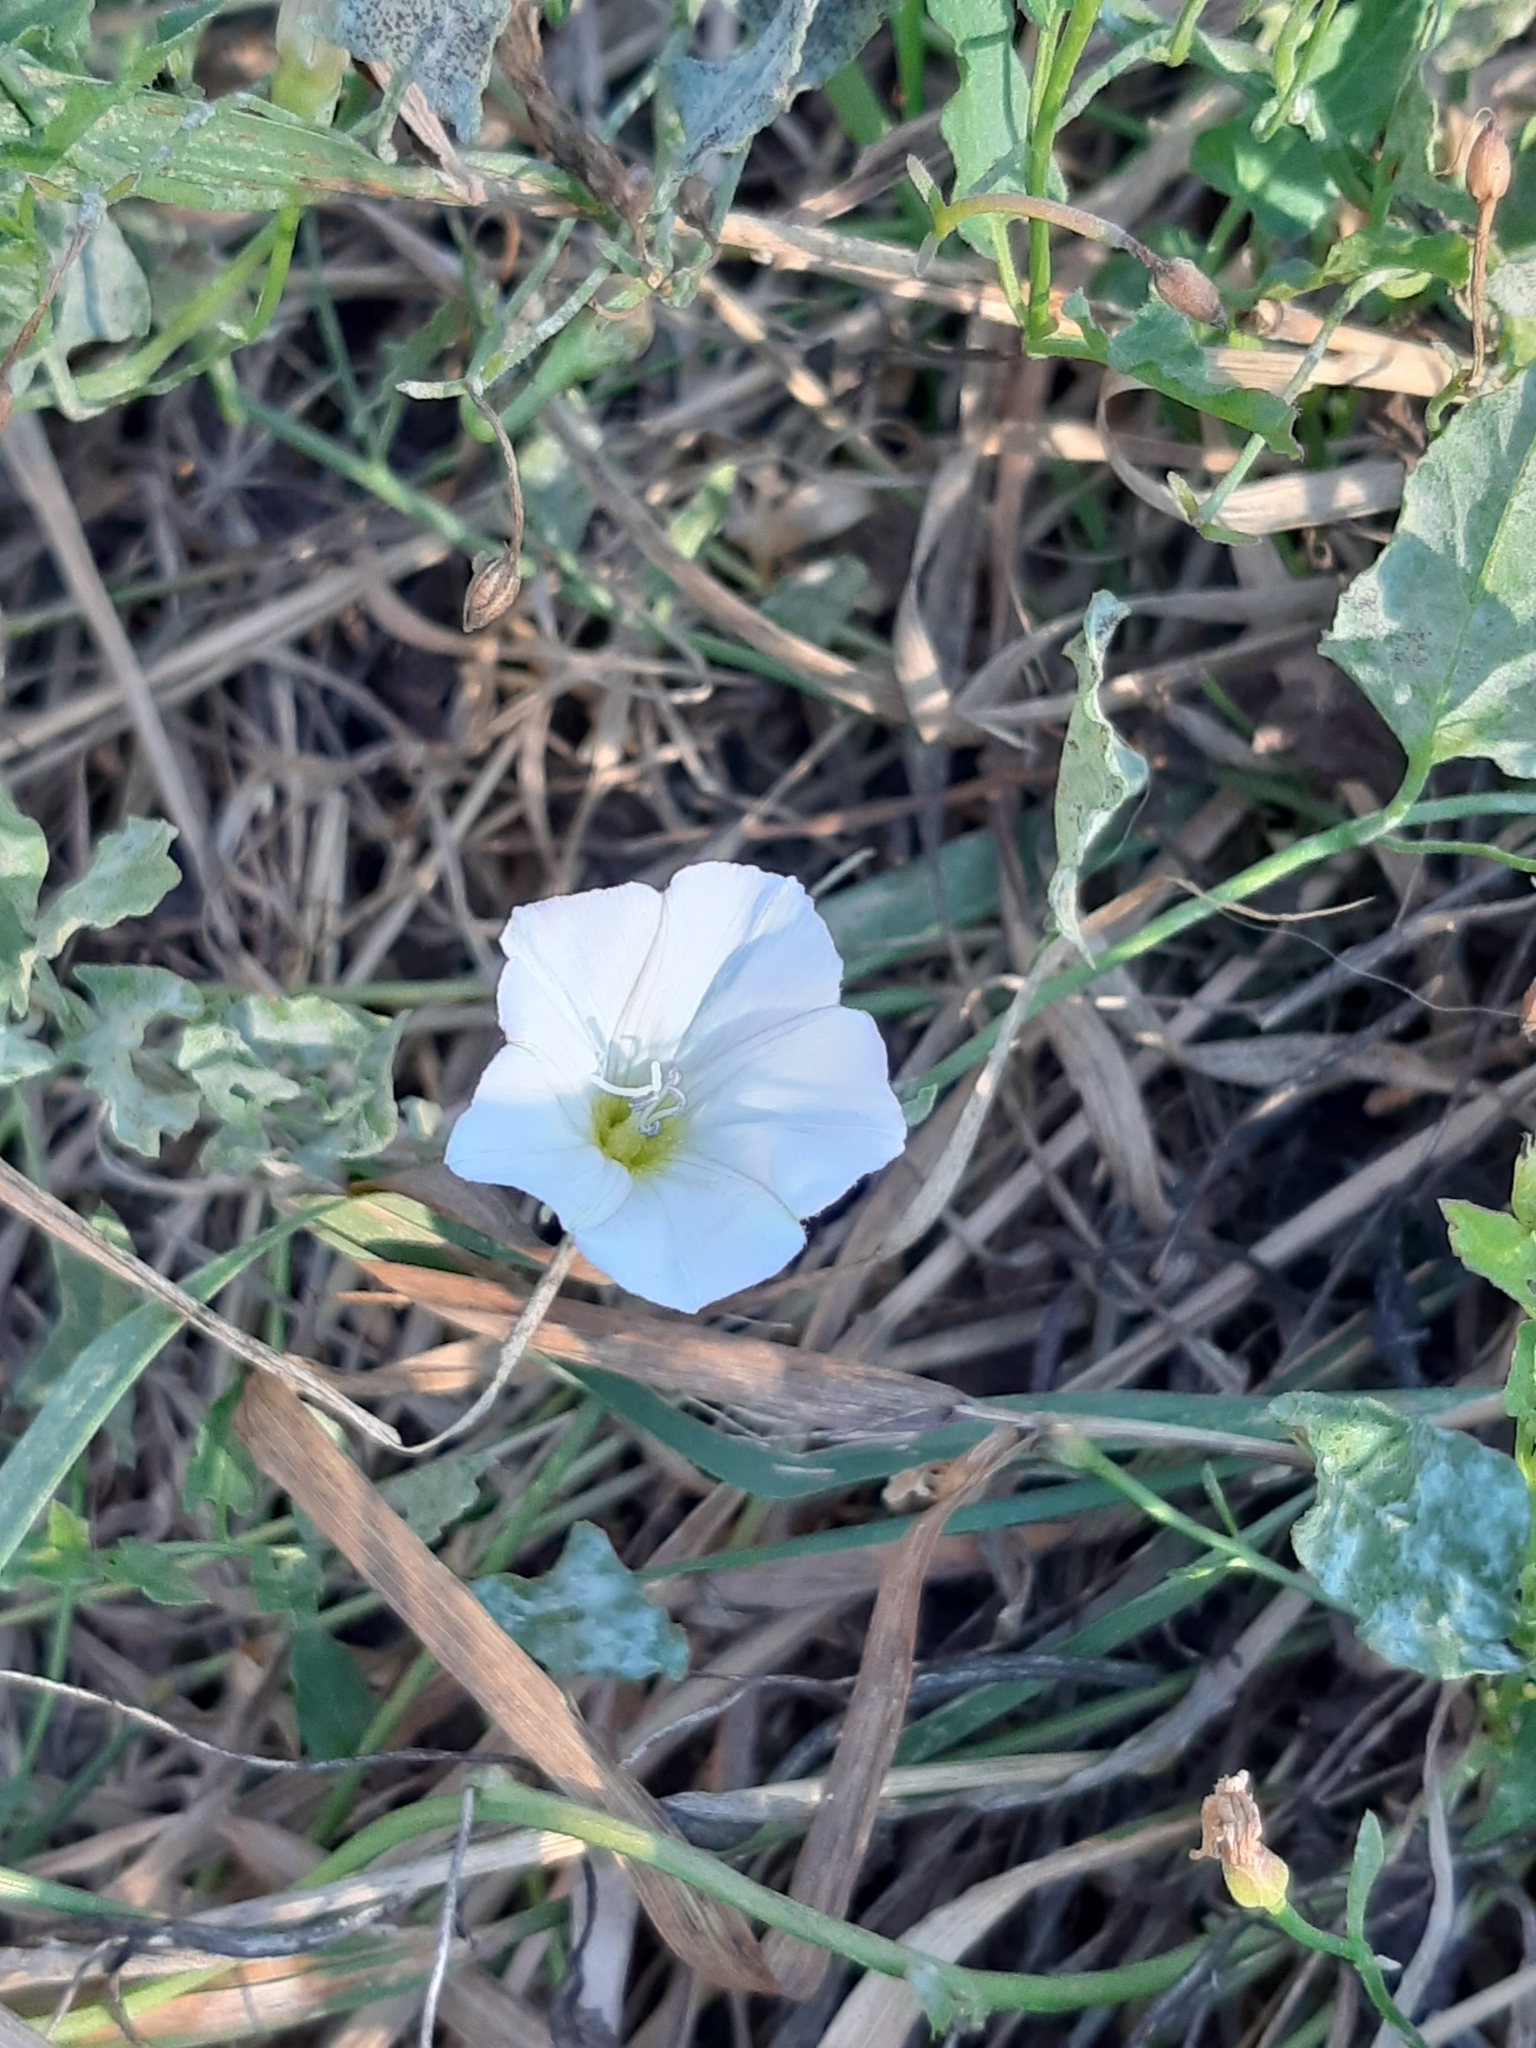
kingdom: Plantae
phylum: Tracheophyta
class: Magnoliopsida
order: Solanales
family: Convolvulaceae
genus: Convolvulus
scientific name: Convolvulus arvensis
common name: Field bindweed
